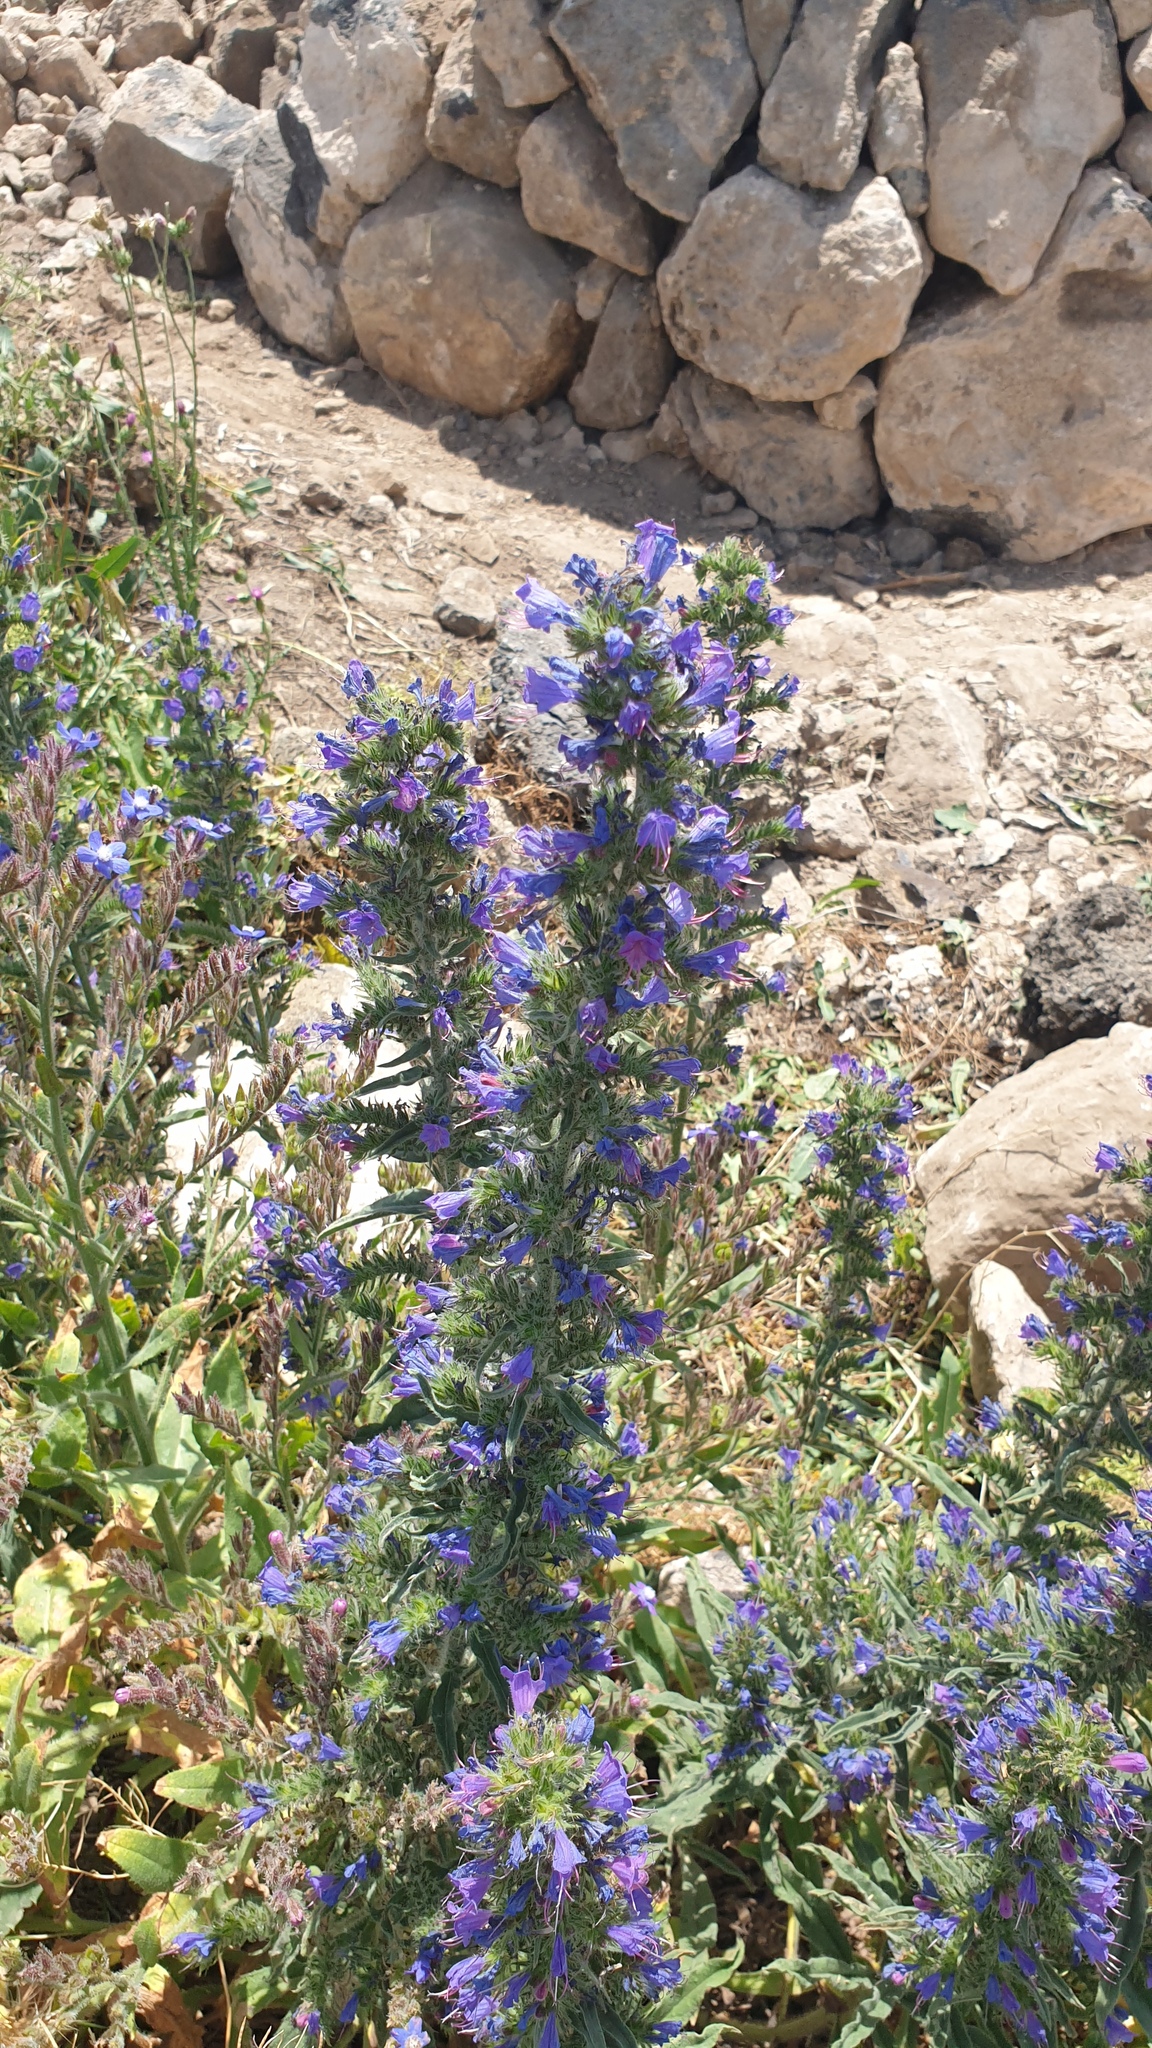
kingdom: Plantae
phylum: Tracheophyta
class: Magnoliopsida
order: Boraginales
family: Boraginaceae
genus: Echium
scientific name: Echium vulgare
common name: Common viper's bugloss
